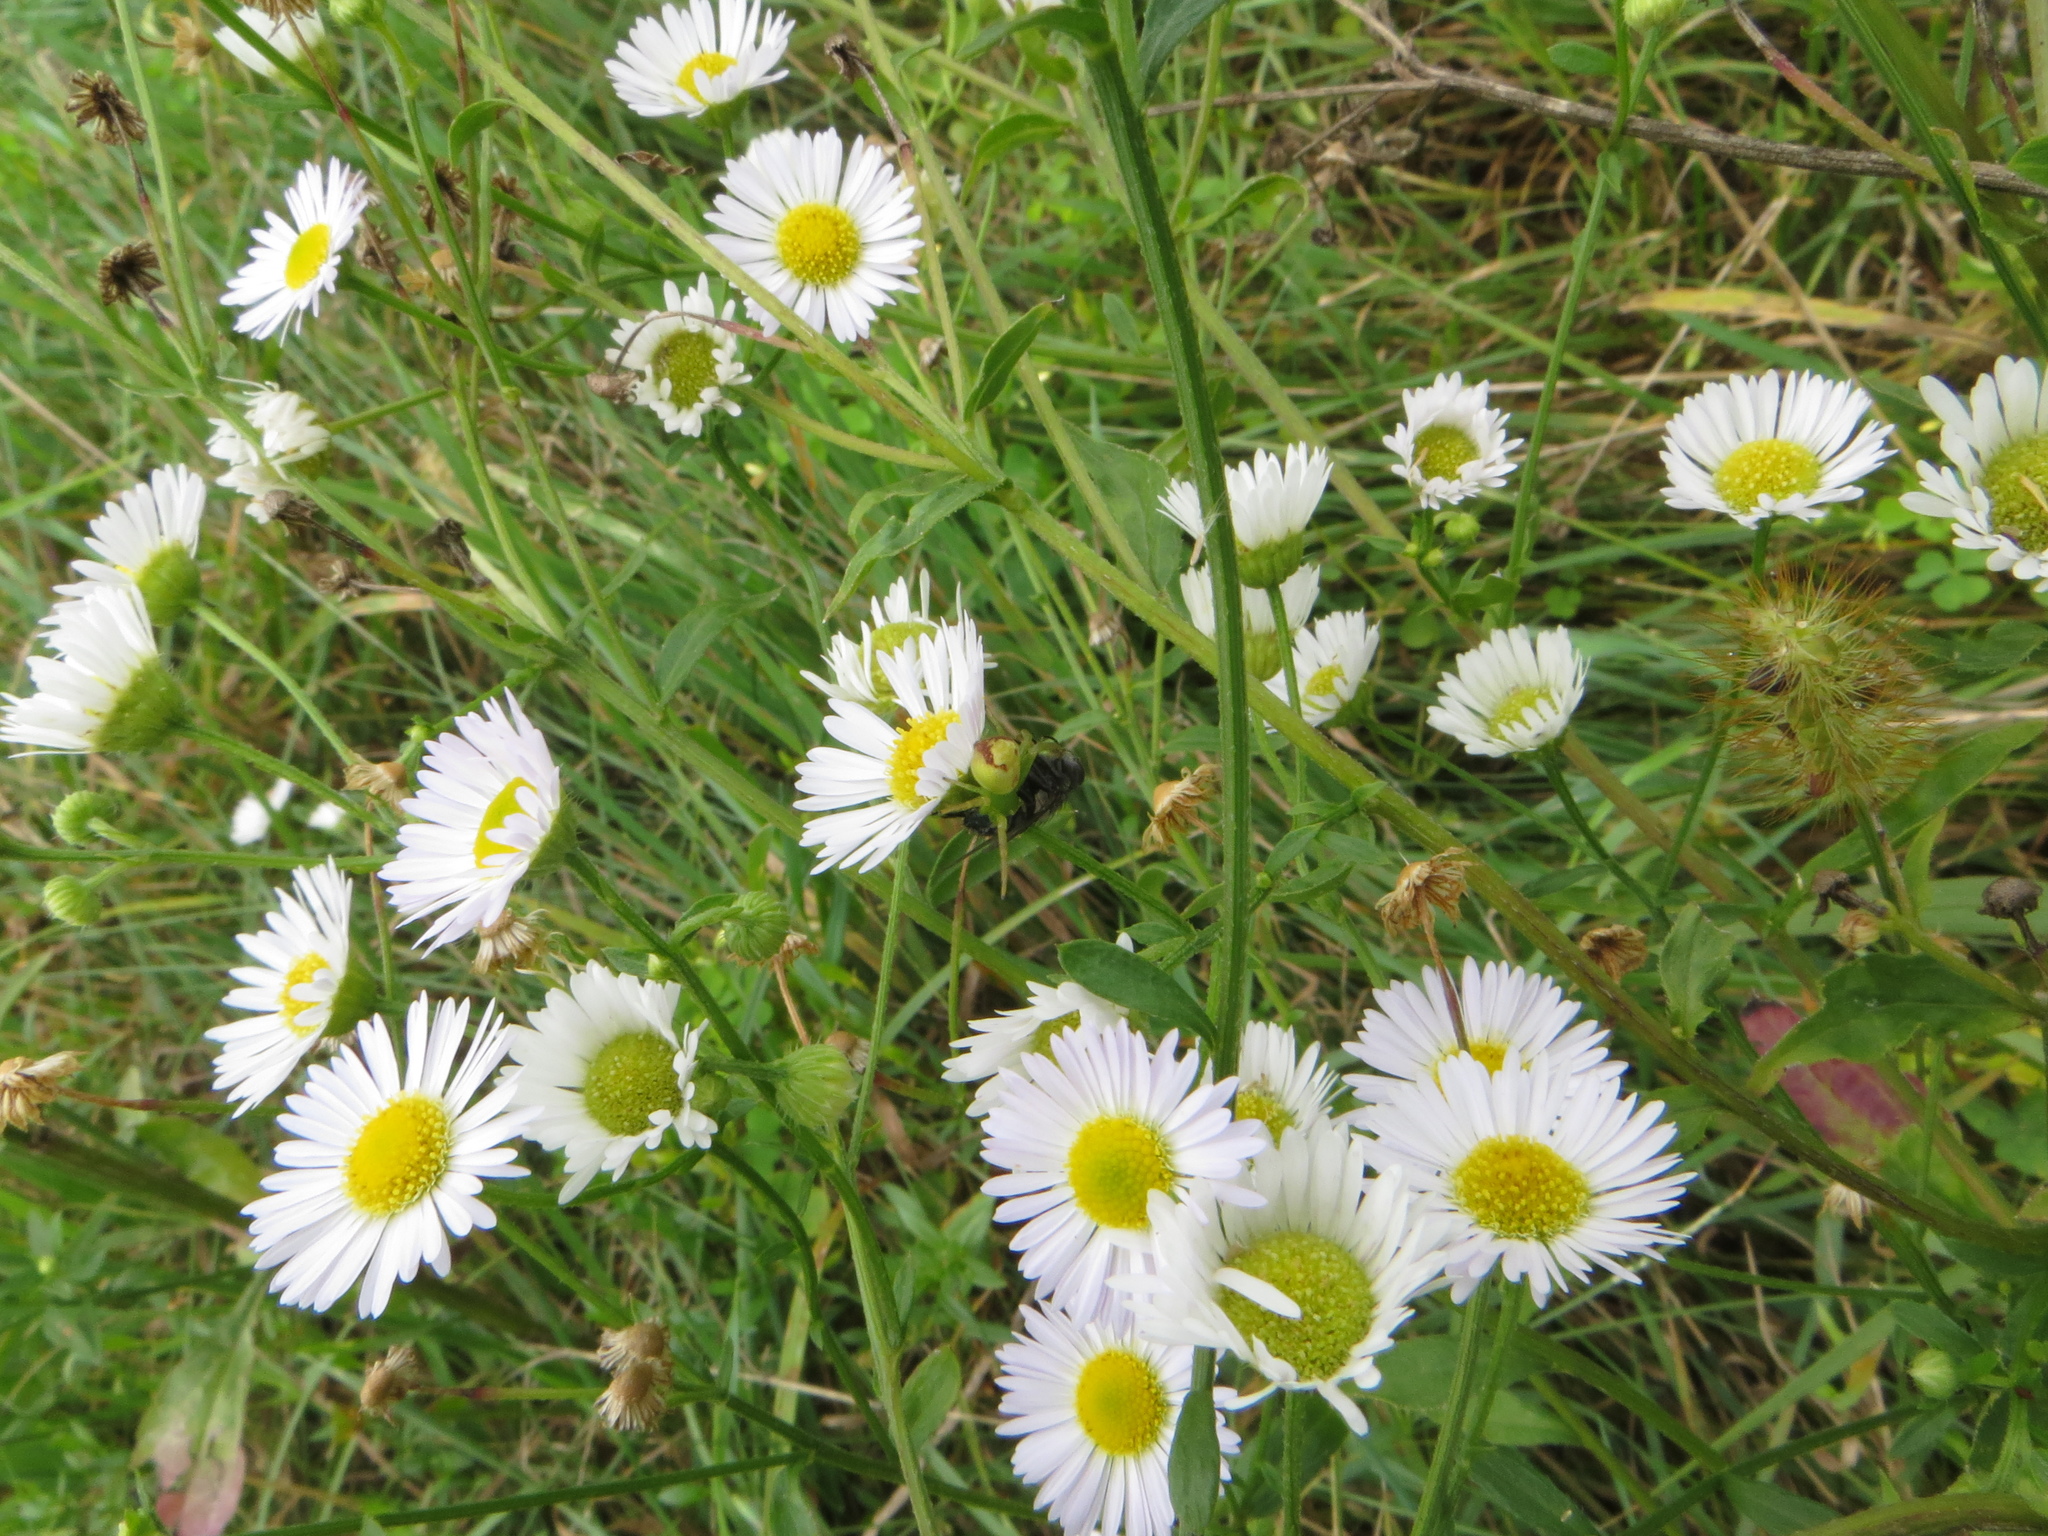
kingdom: Animalia
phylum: Arthropoda
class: Arachnida
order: Araneae
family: Thomisidae
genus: Ebrechtella
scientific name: Ebrechtella tricuspidata
